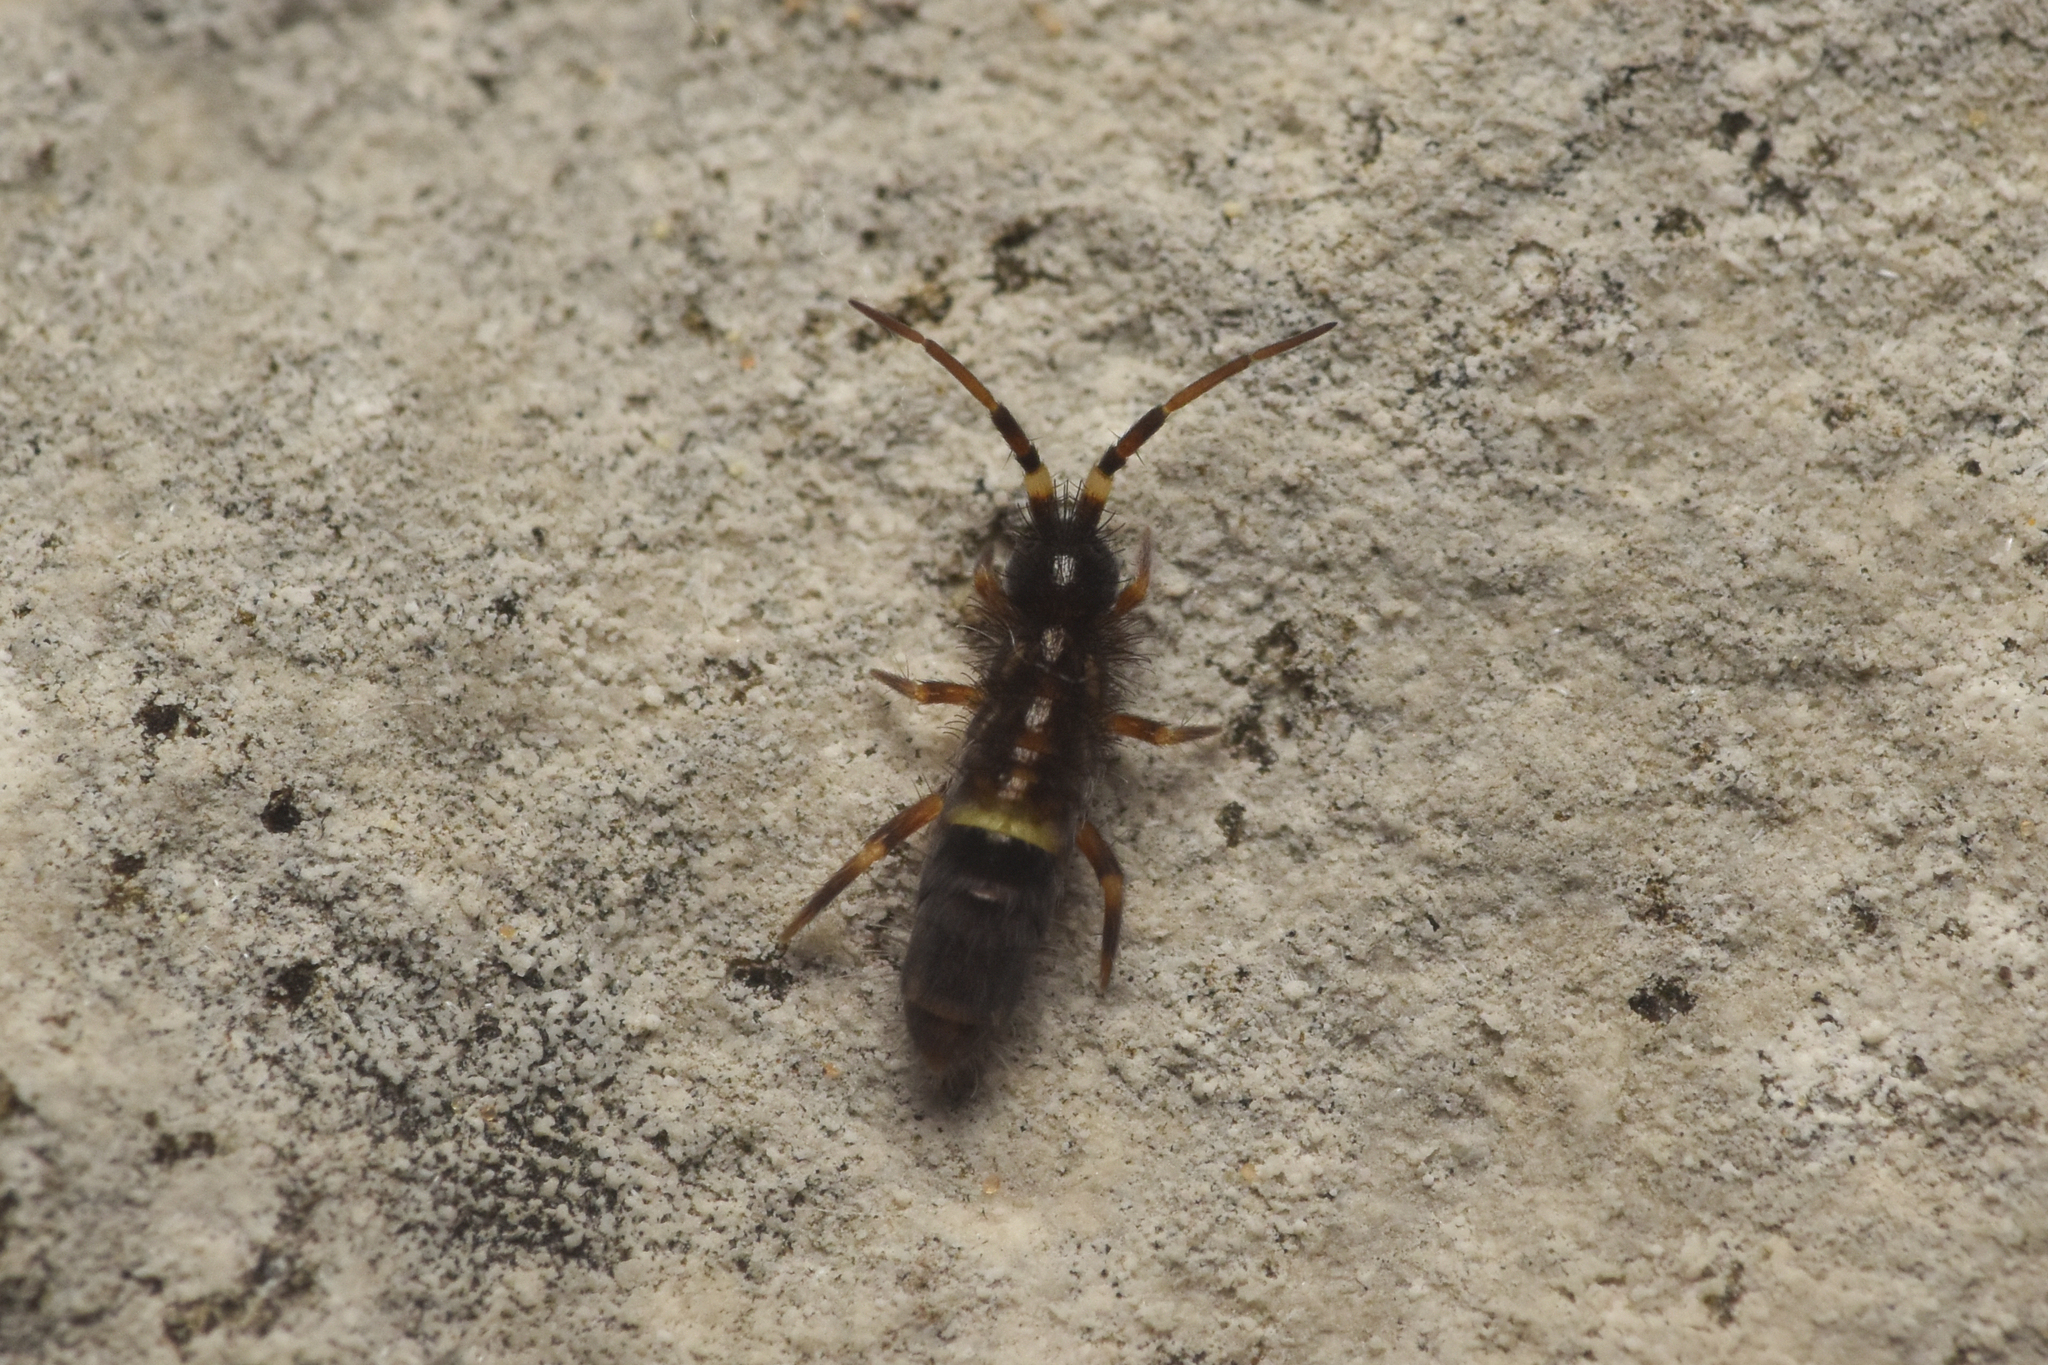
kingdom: Animalia
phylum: Arthropoda
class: Collembola
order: Entomobryomorpha
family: Orchesellidae
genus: Orchesella
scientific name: Orchesella cincta
